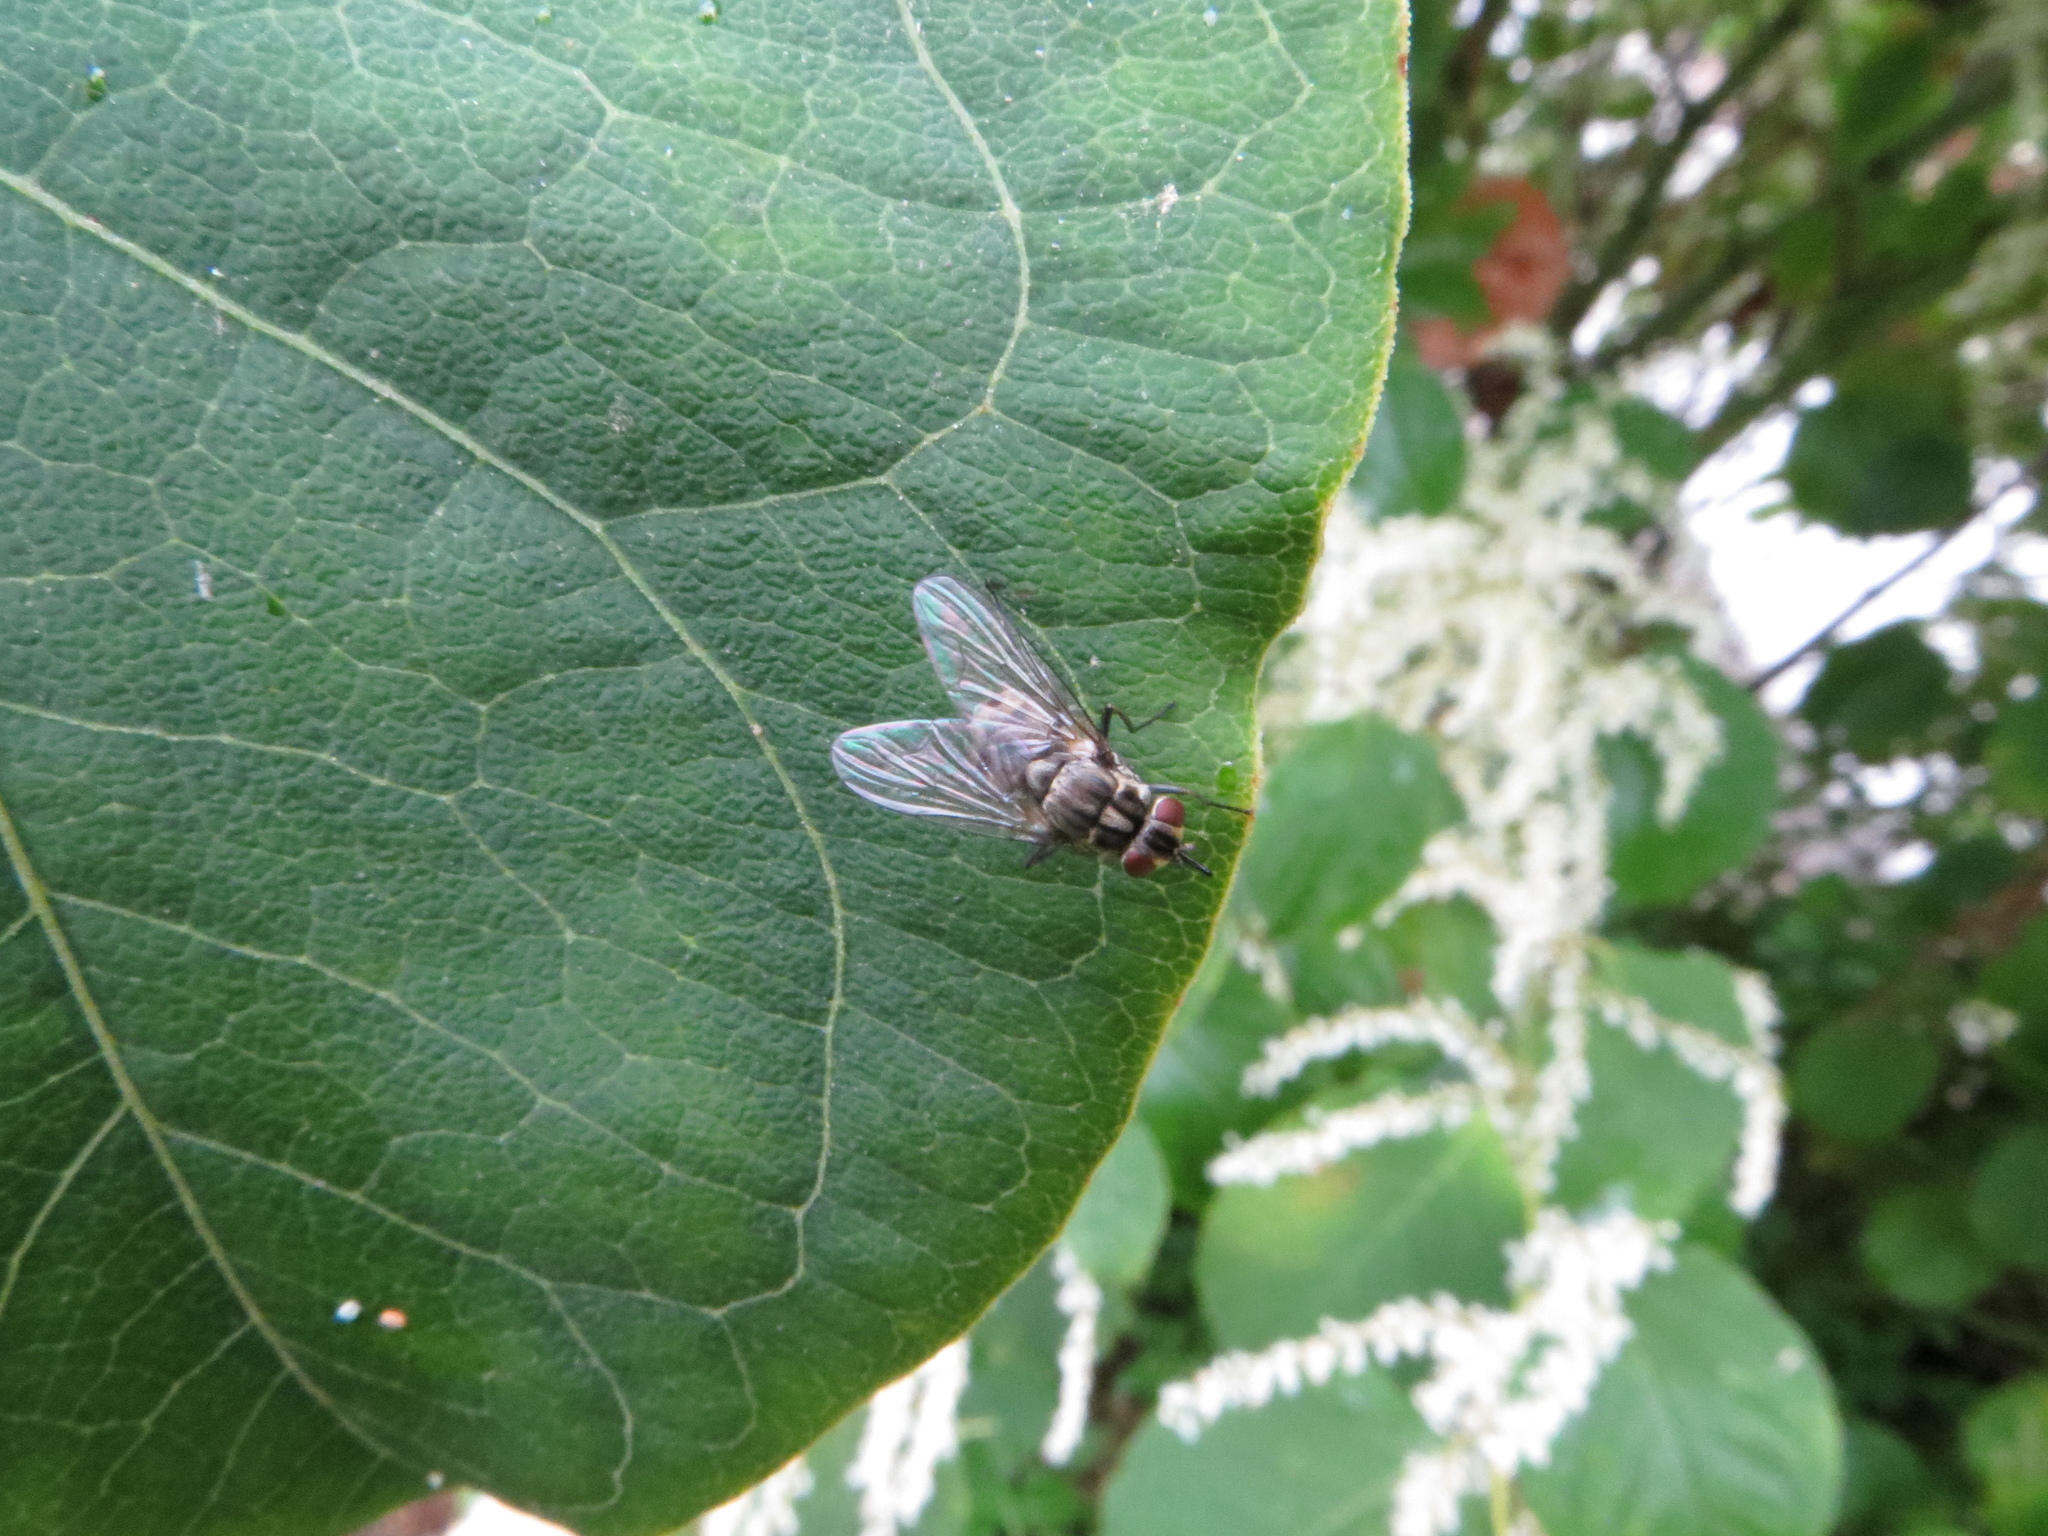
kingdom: Animalia
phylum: Arthropoda
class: Insecta
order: Diptera
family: Muscidae
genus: Stomoxys
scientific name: Stomoxys calcitrans
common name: Stable fly
